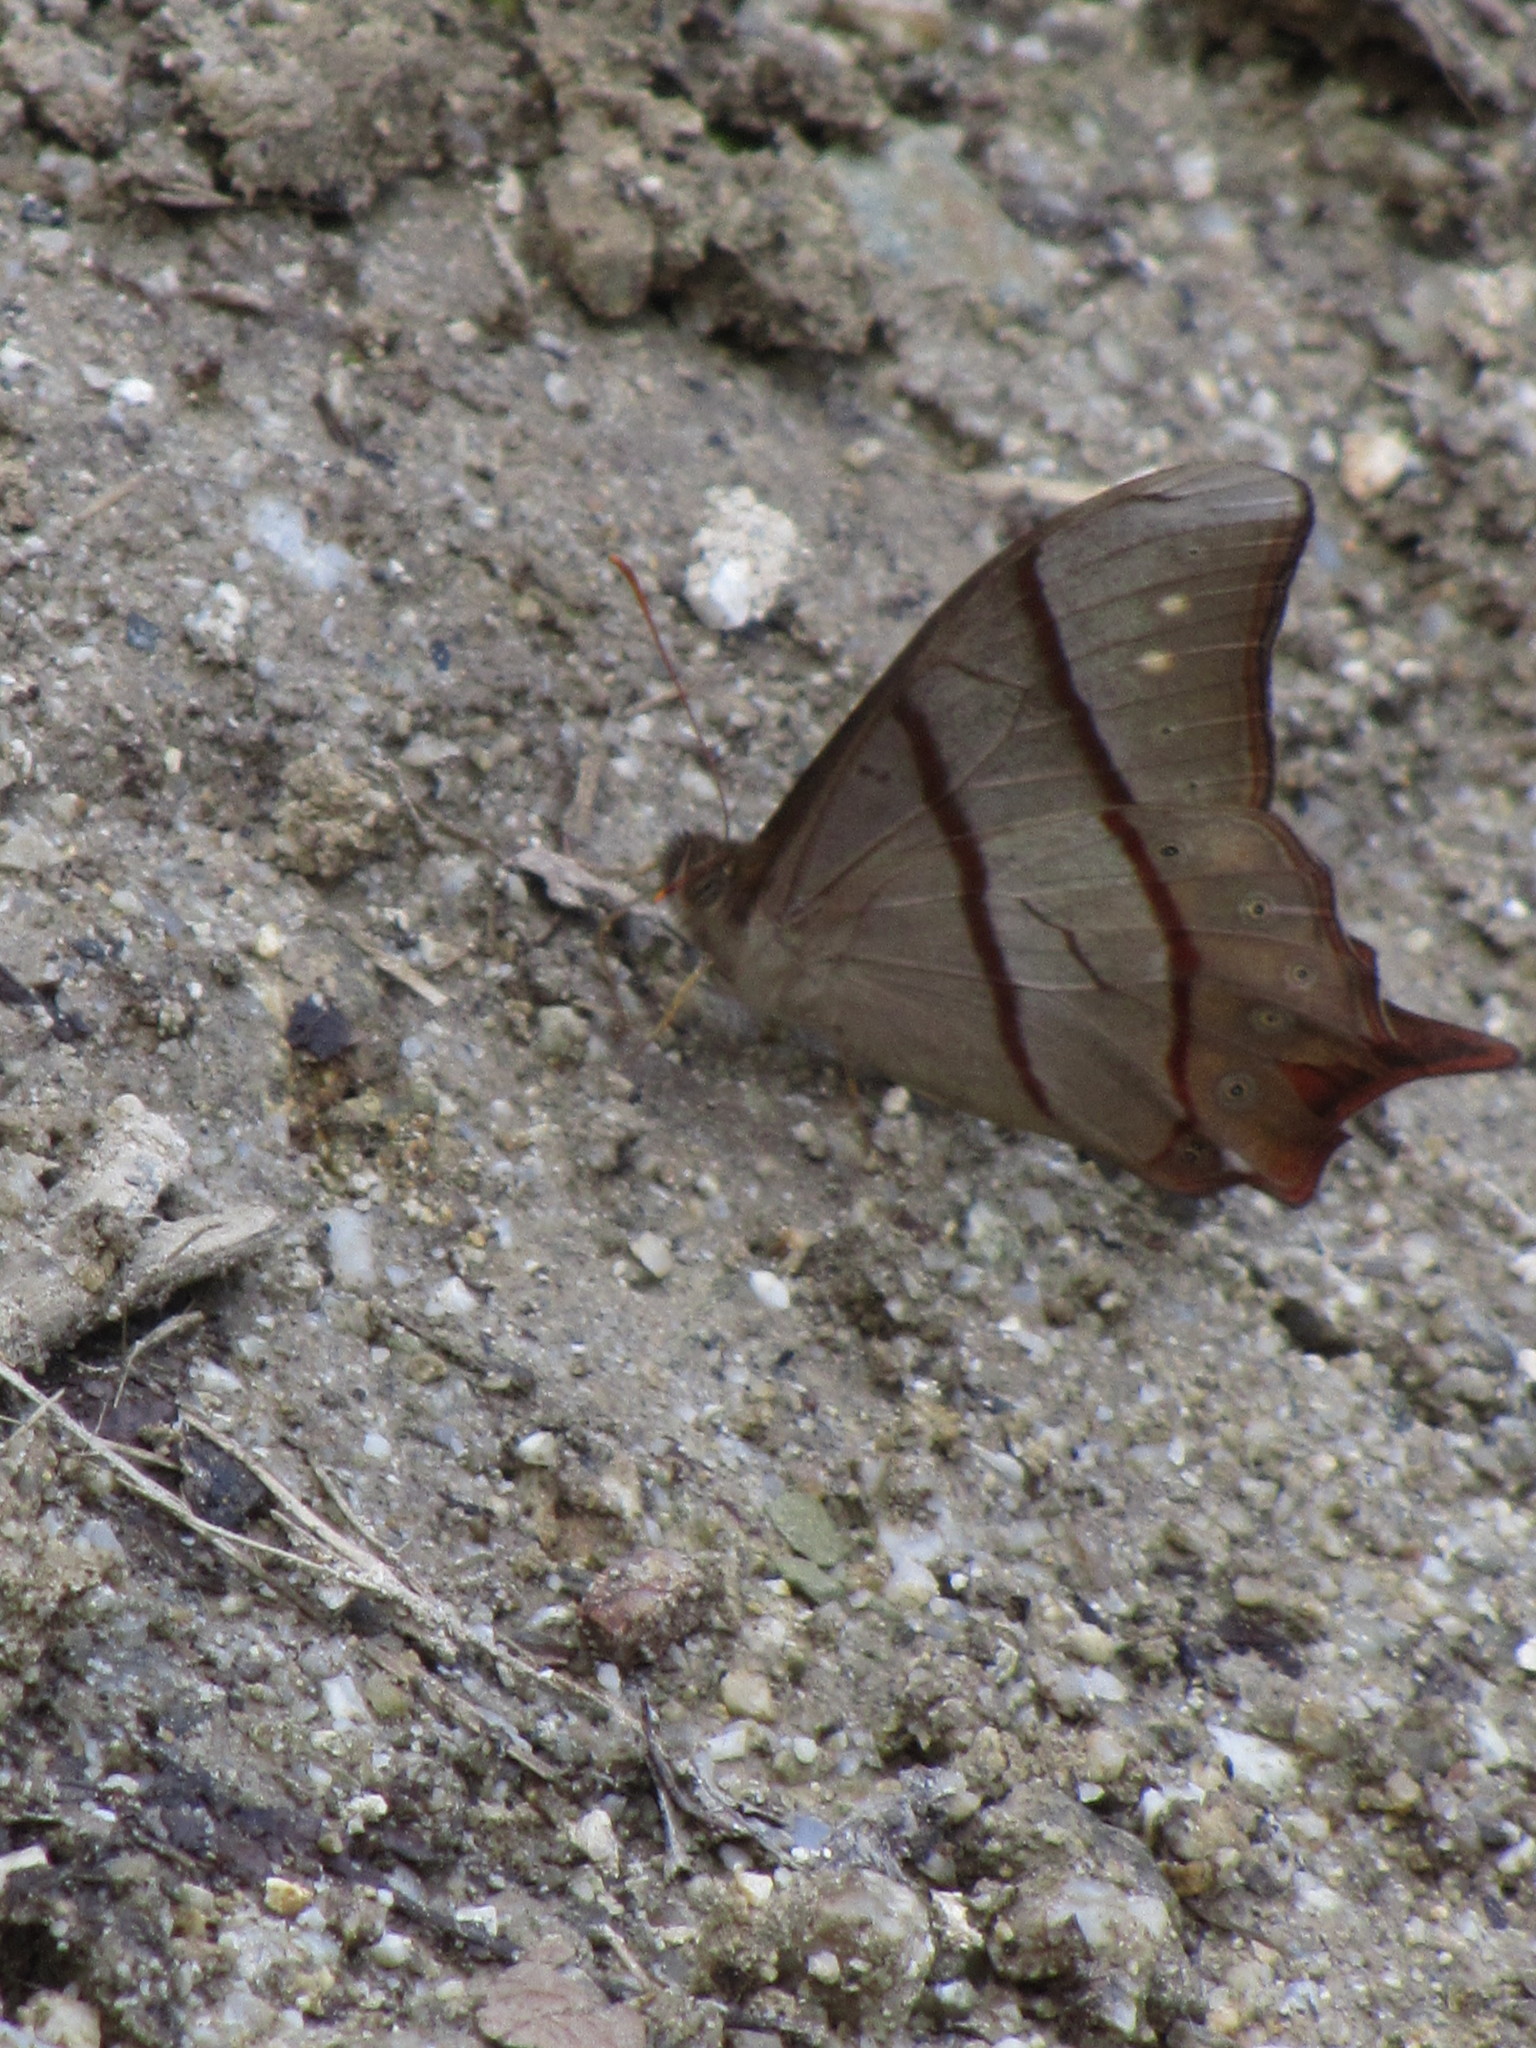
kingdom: Animalia
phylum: Arthropoda
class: Insecta
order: Lepidoptera
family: Nymphalidae
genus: Lethe
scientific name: Lethe sinorix
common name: Tailed red forester
